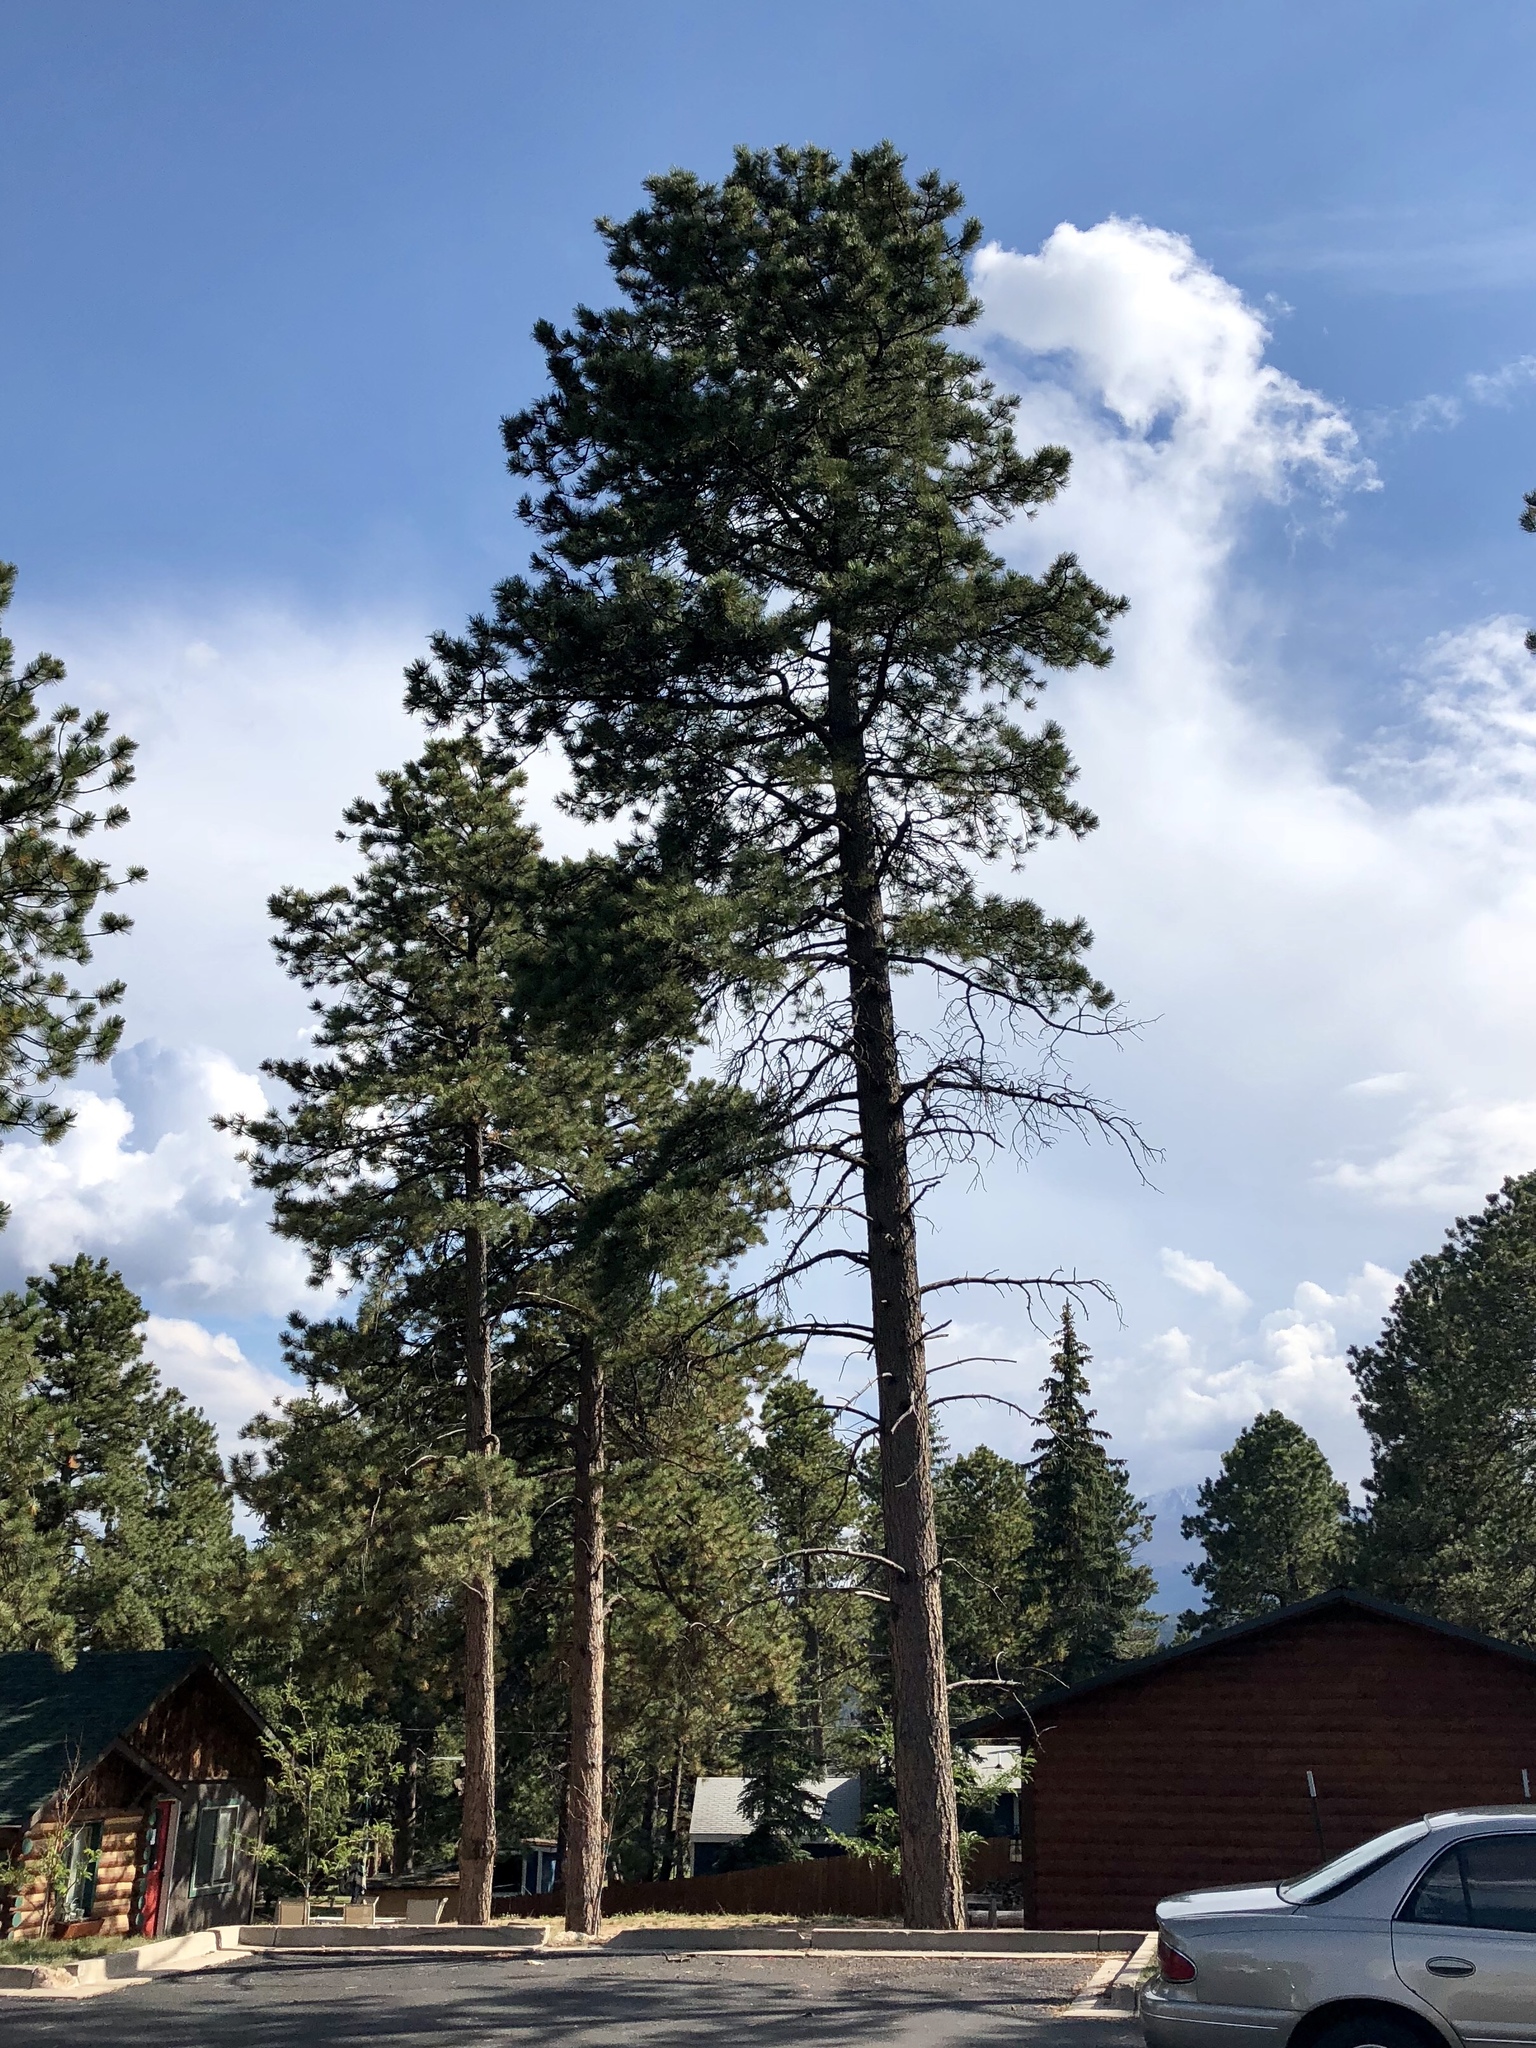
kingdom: Plantae
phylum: Tracheophyta
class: Pinopsida
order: Pinales
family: Pinaceae
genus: Pinus
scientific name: Pinus ponderosa
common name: Western yellow-pine
